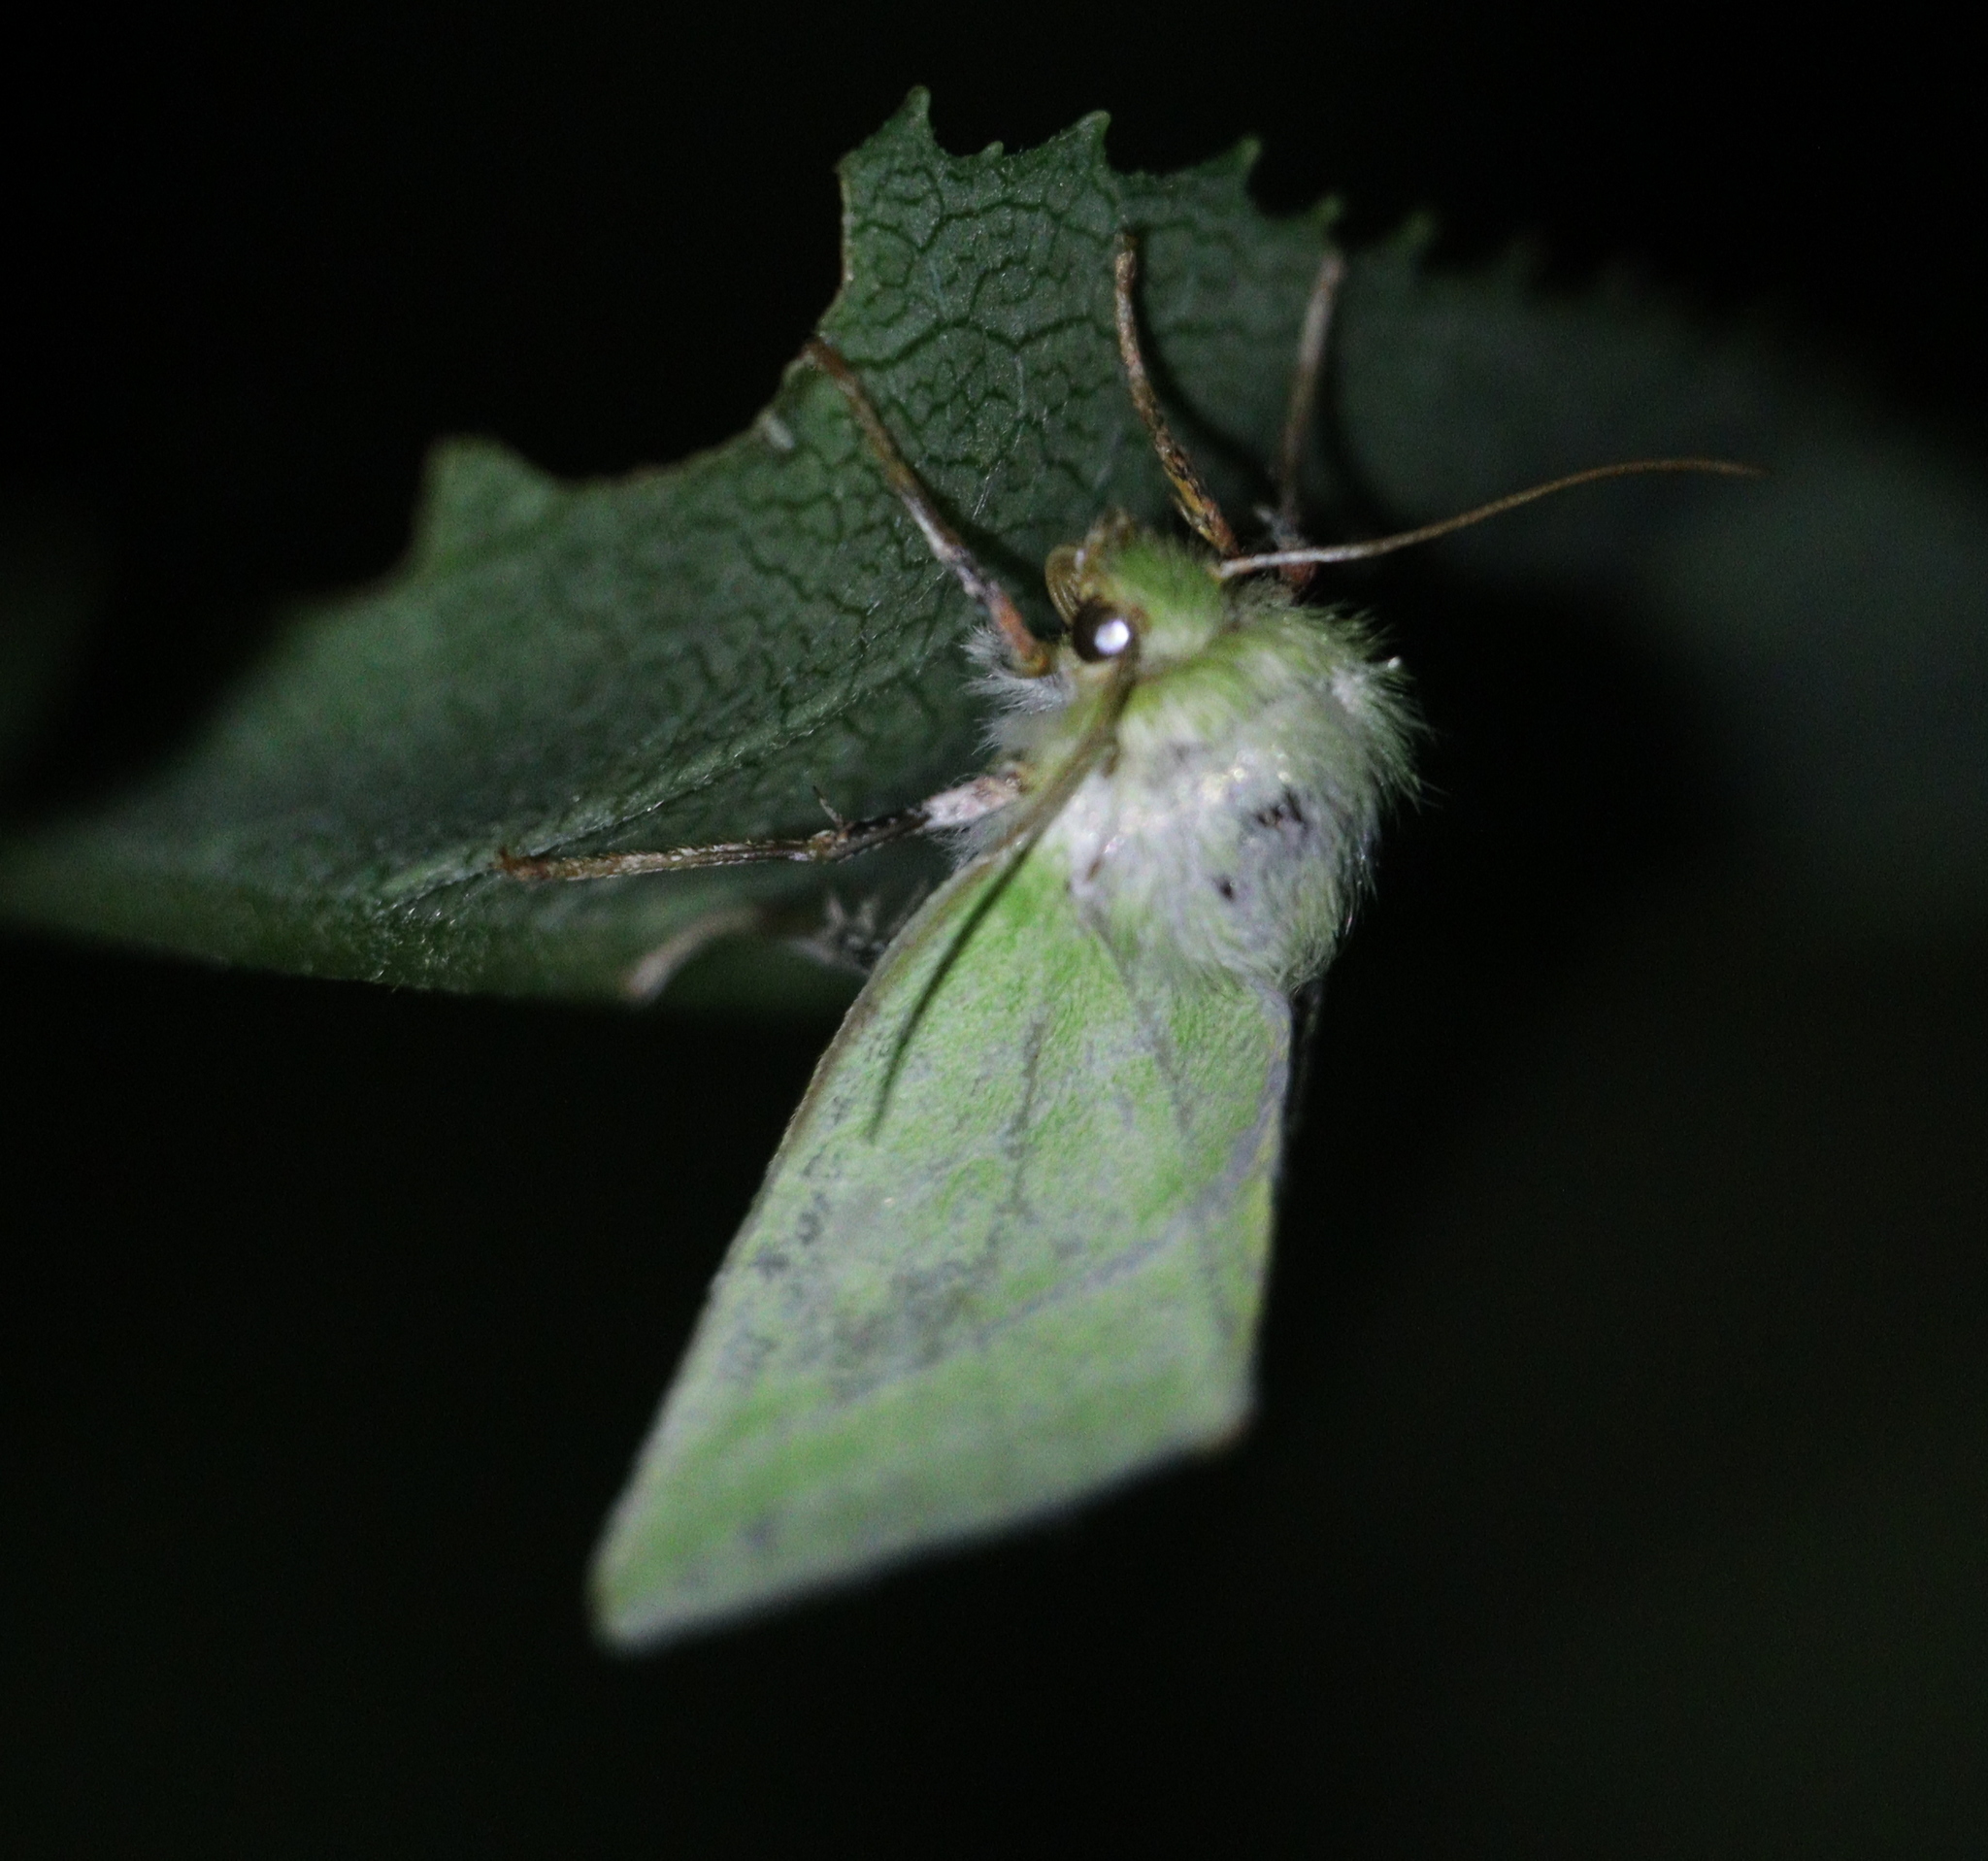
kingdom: Animalia
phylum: Arthropoda
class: Insecta
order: Lepidoptera
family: Nolidae
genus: Pseudoips
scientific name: Pseudoips prasinana
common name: Green silver-lines
